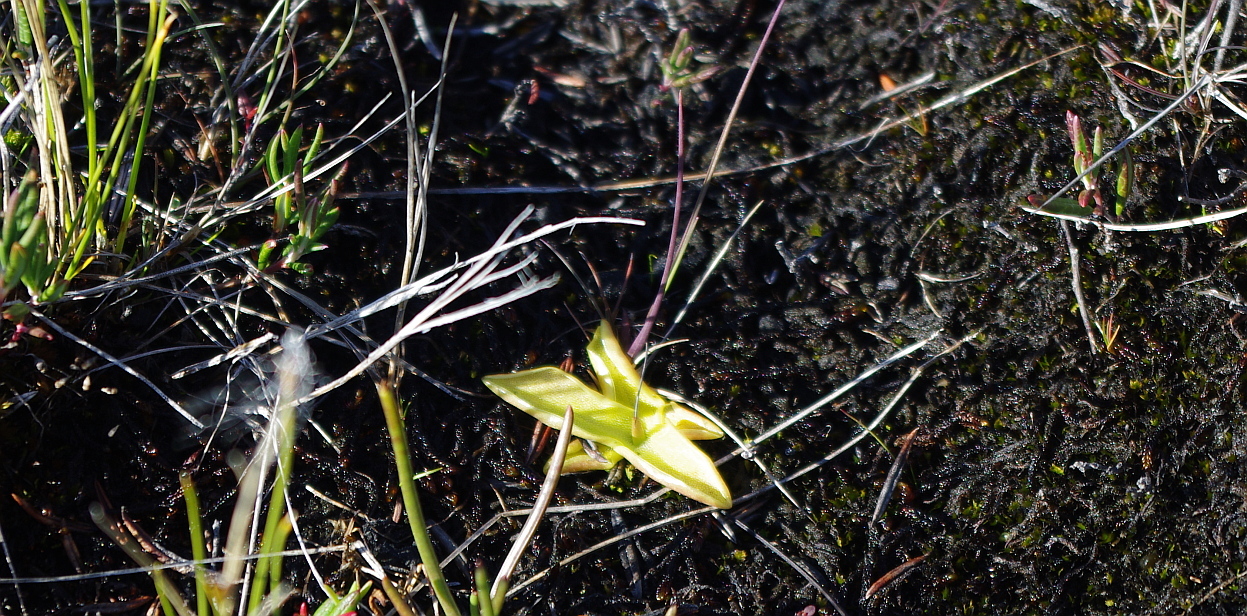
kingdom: Plantae
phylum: Tracheophyta
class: Magnoliopsida
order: Lamiales
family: Lentibulariaceae
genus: Pinguicula
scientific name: Pinguicula vulgaris
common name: Common butterwort
